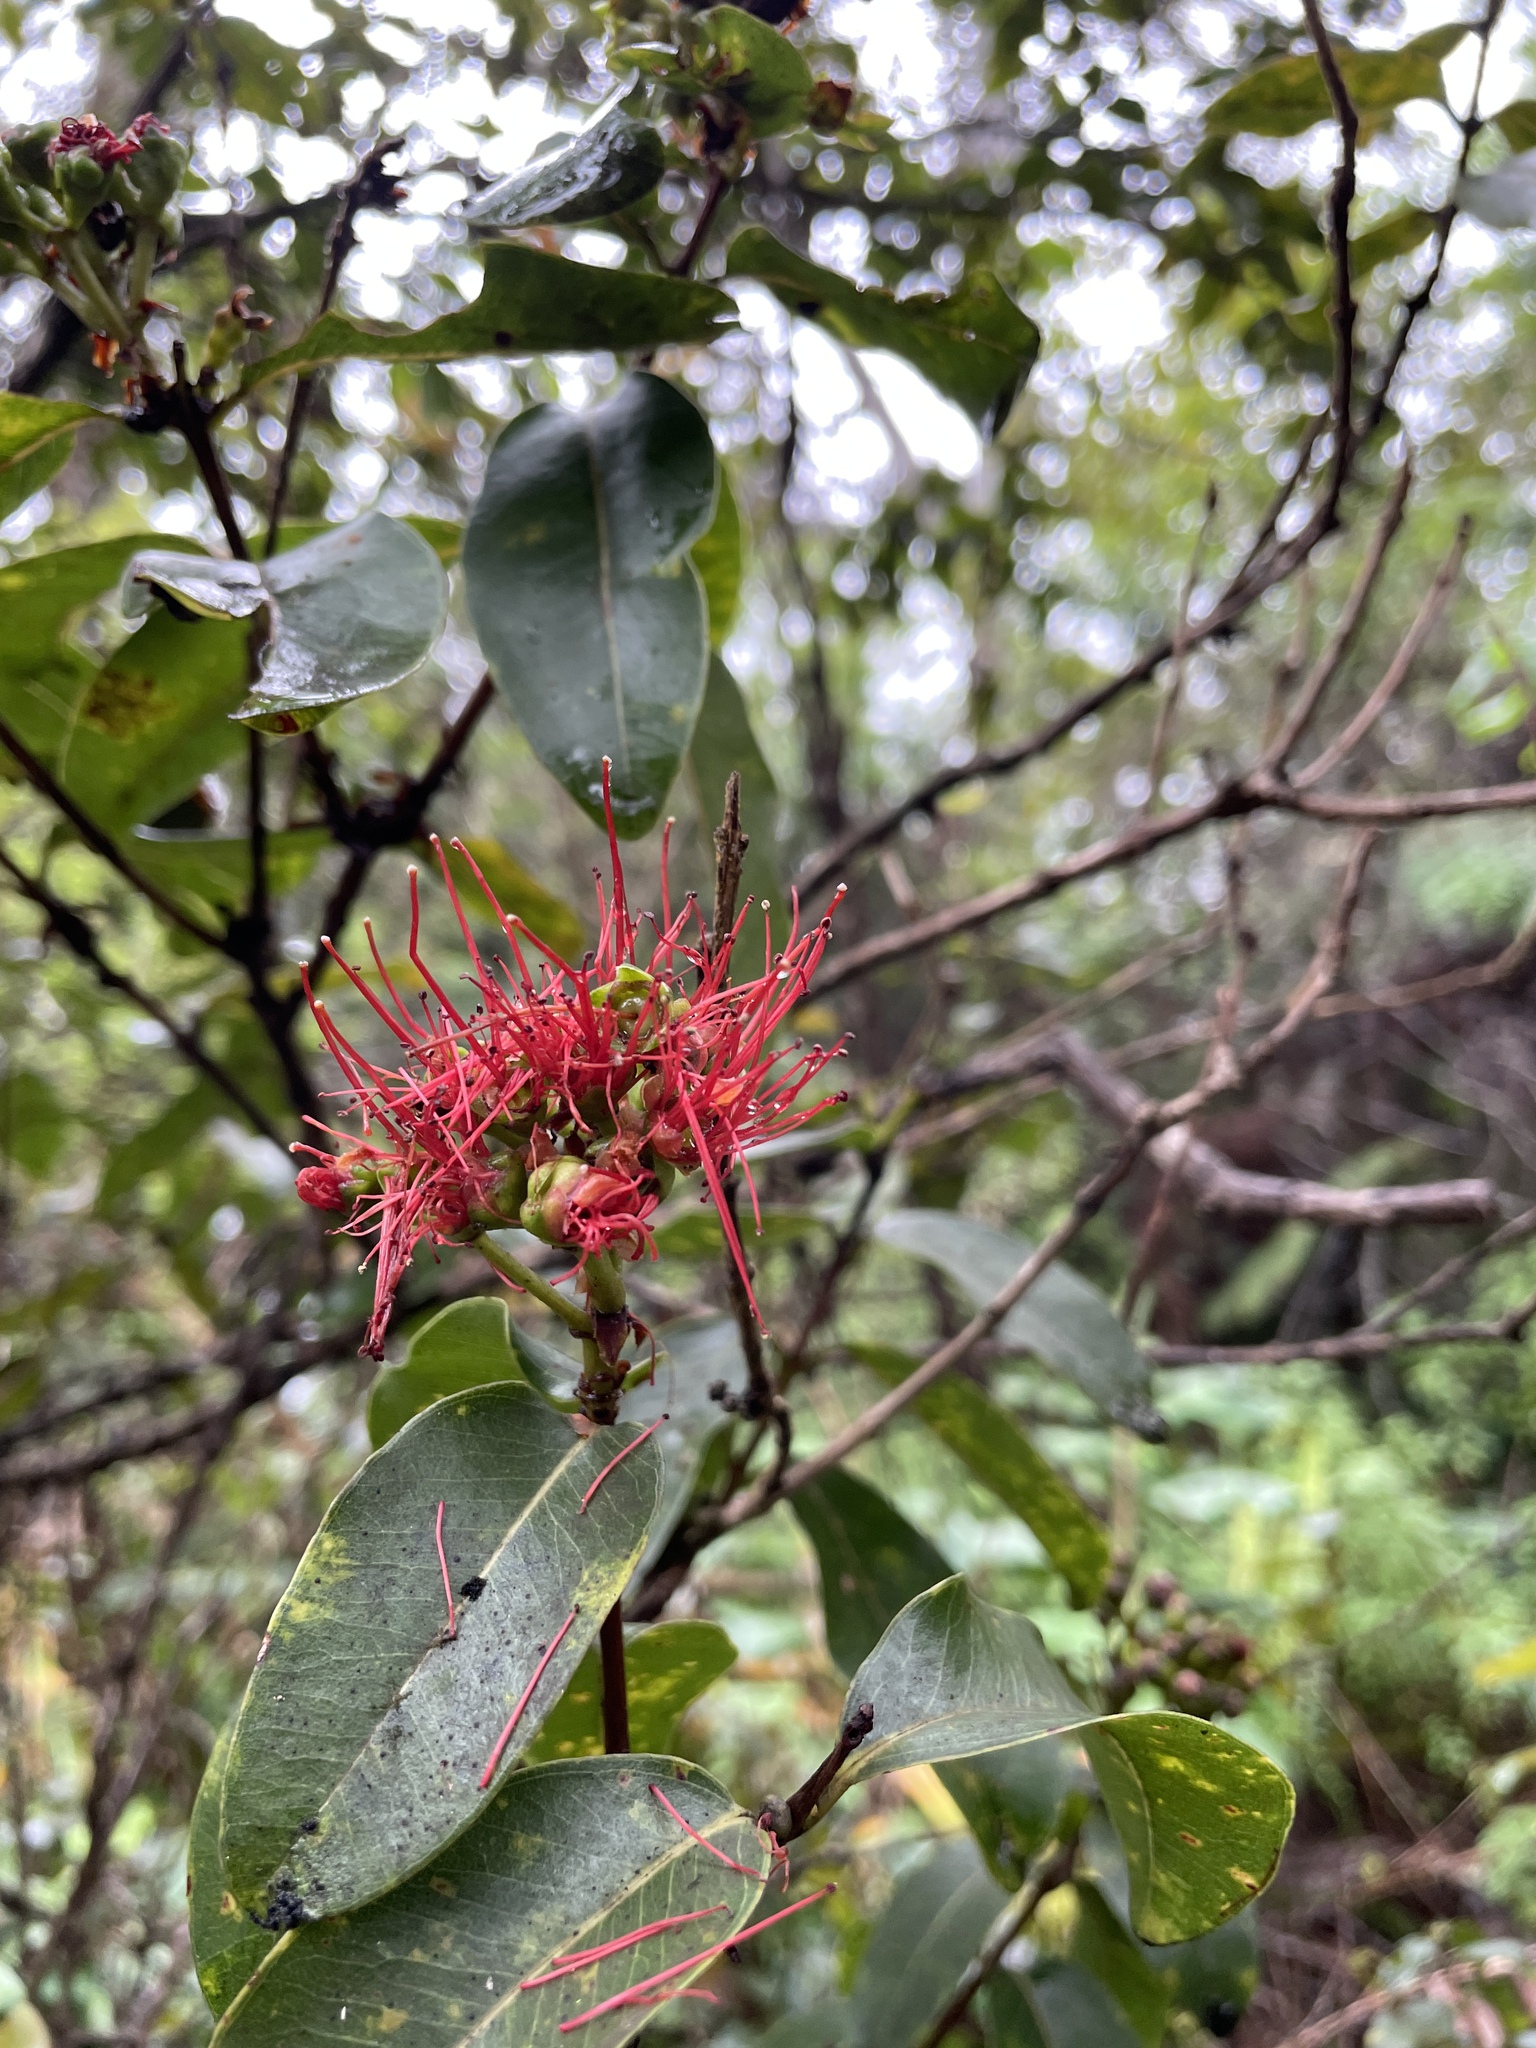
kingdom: Plantae
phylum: Tracheophyta
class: Magnoliopsida
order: Myrtales
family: Myrtaceae
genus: Metrosideros
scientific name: Metrosideros polymorpha
